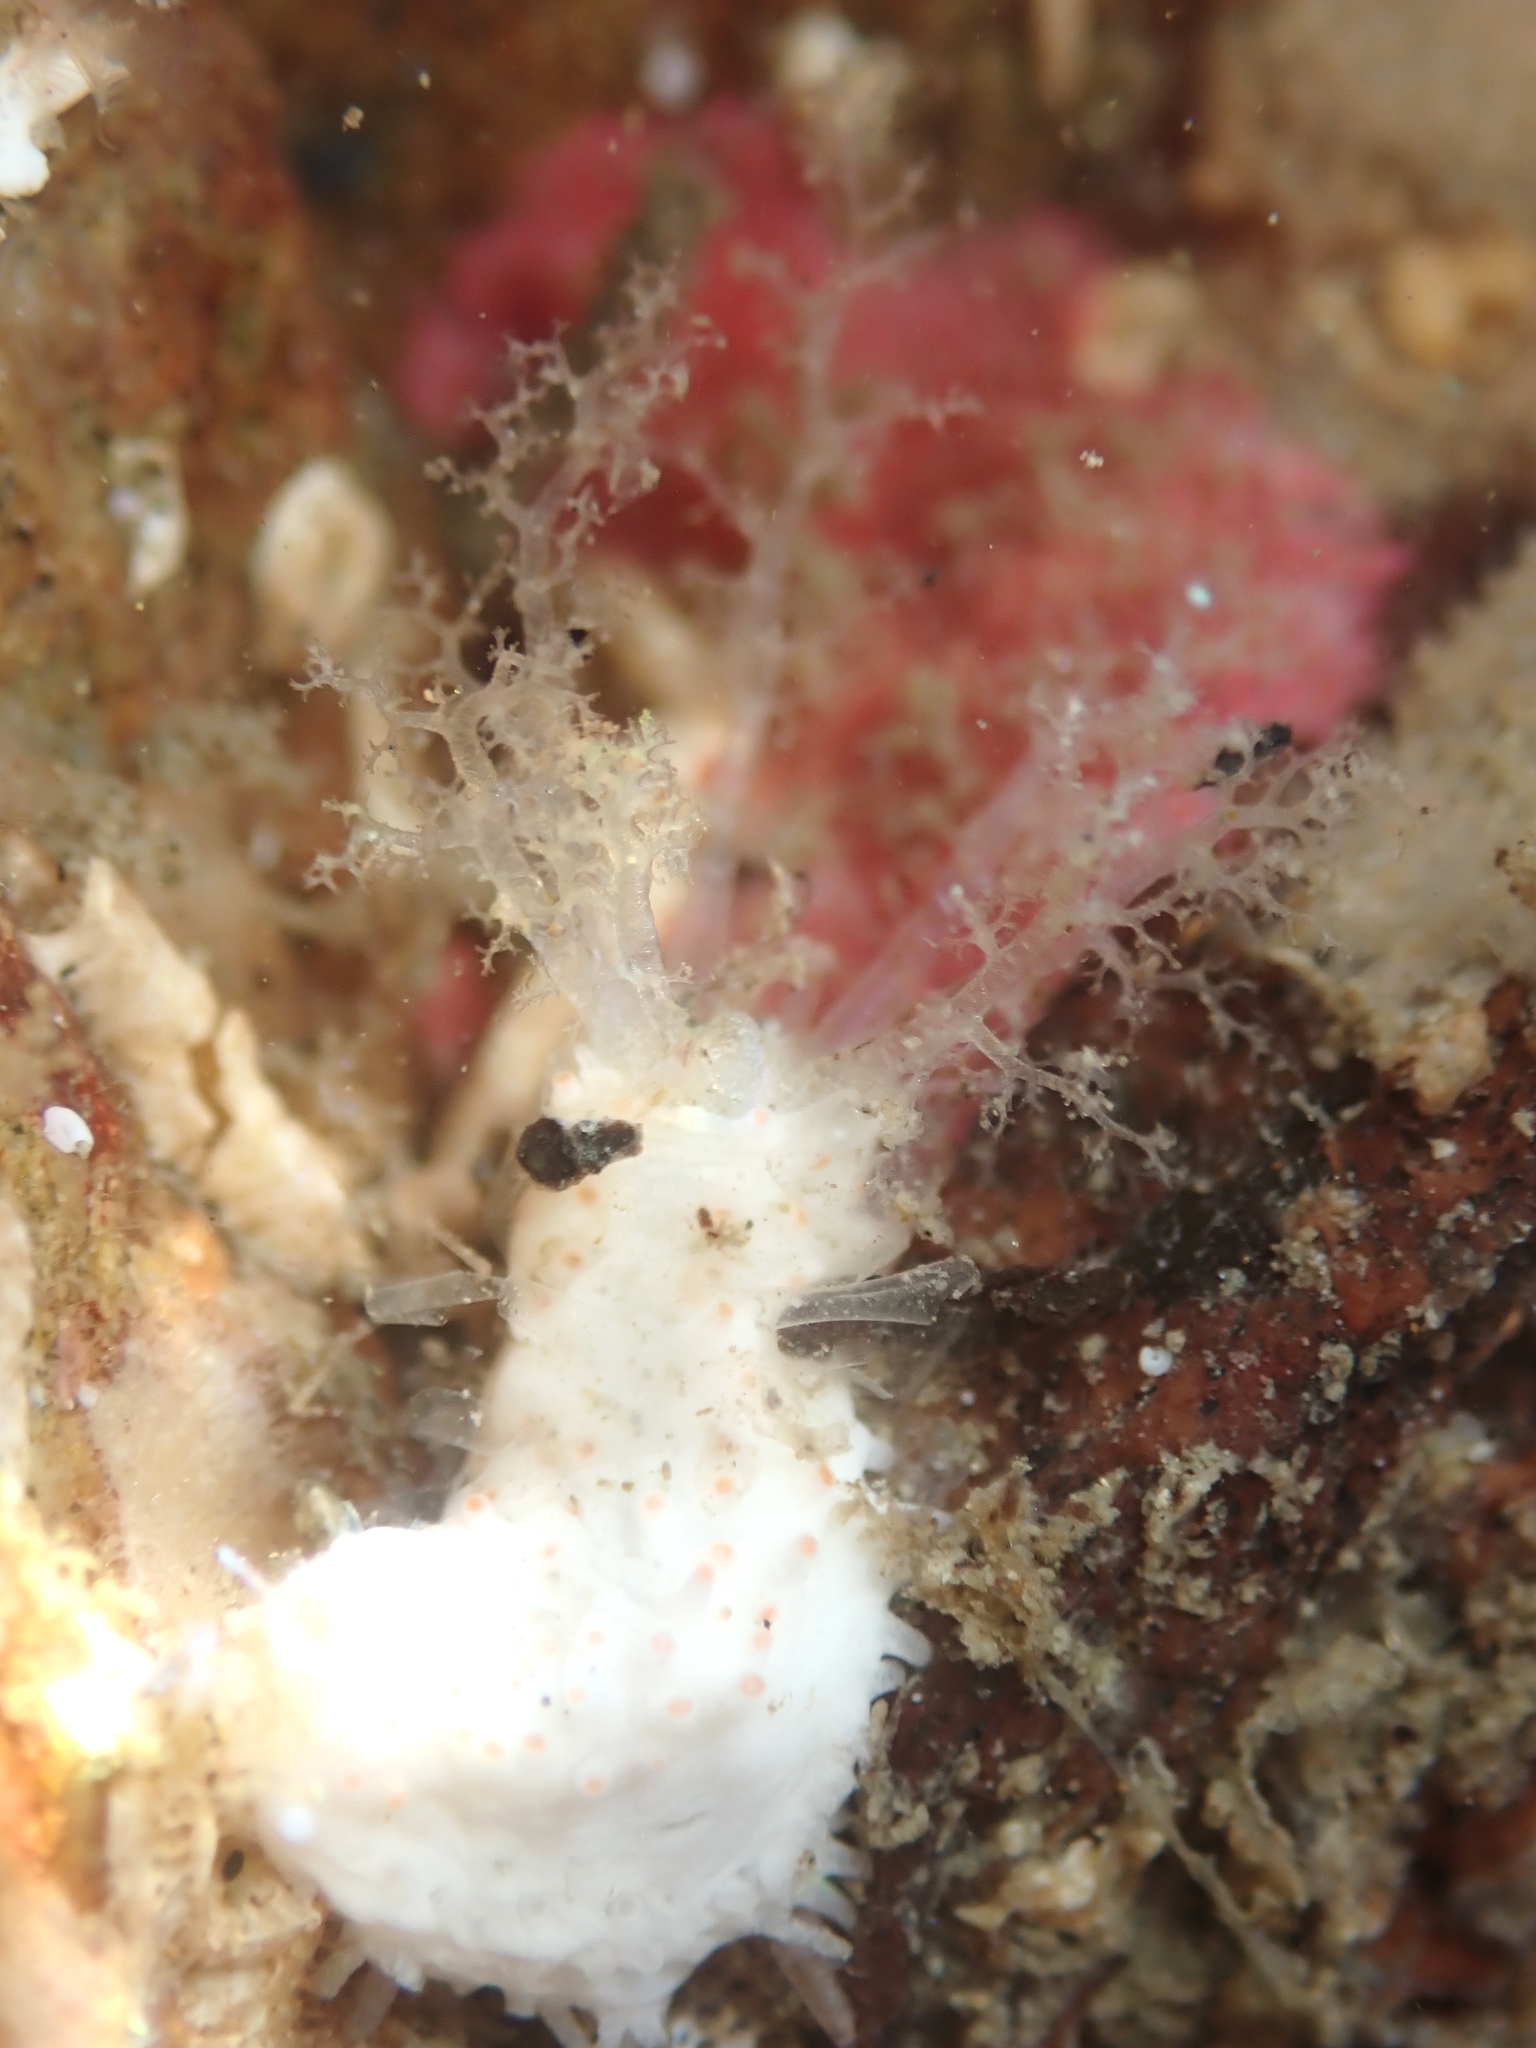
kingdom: Animalia
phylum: Echinodermata
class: Holothuroidea
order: Dendrochirotida
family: Cucumariidae
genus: Australocnus
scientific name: Australocnus calcareus
